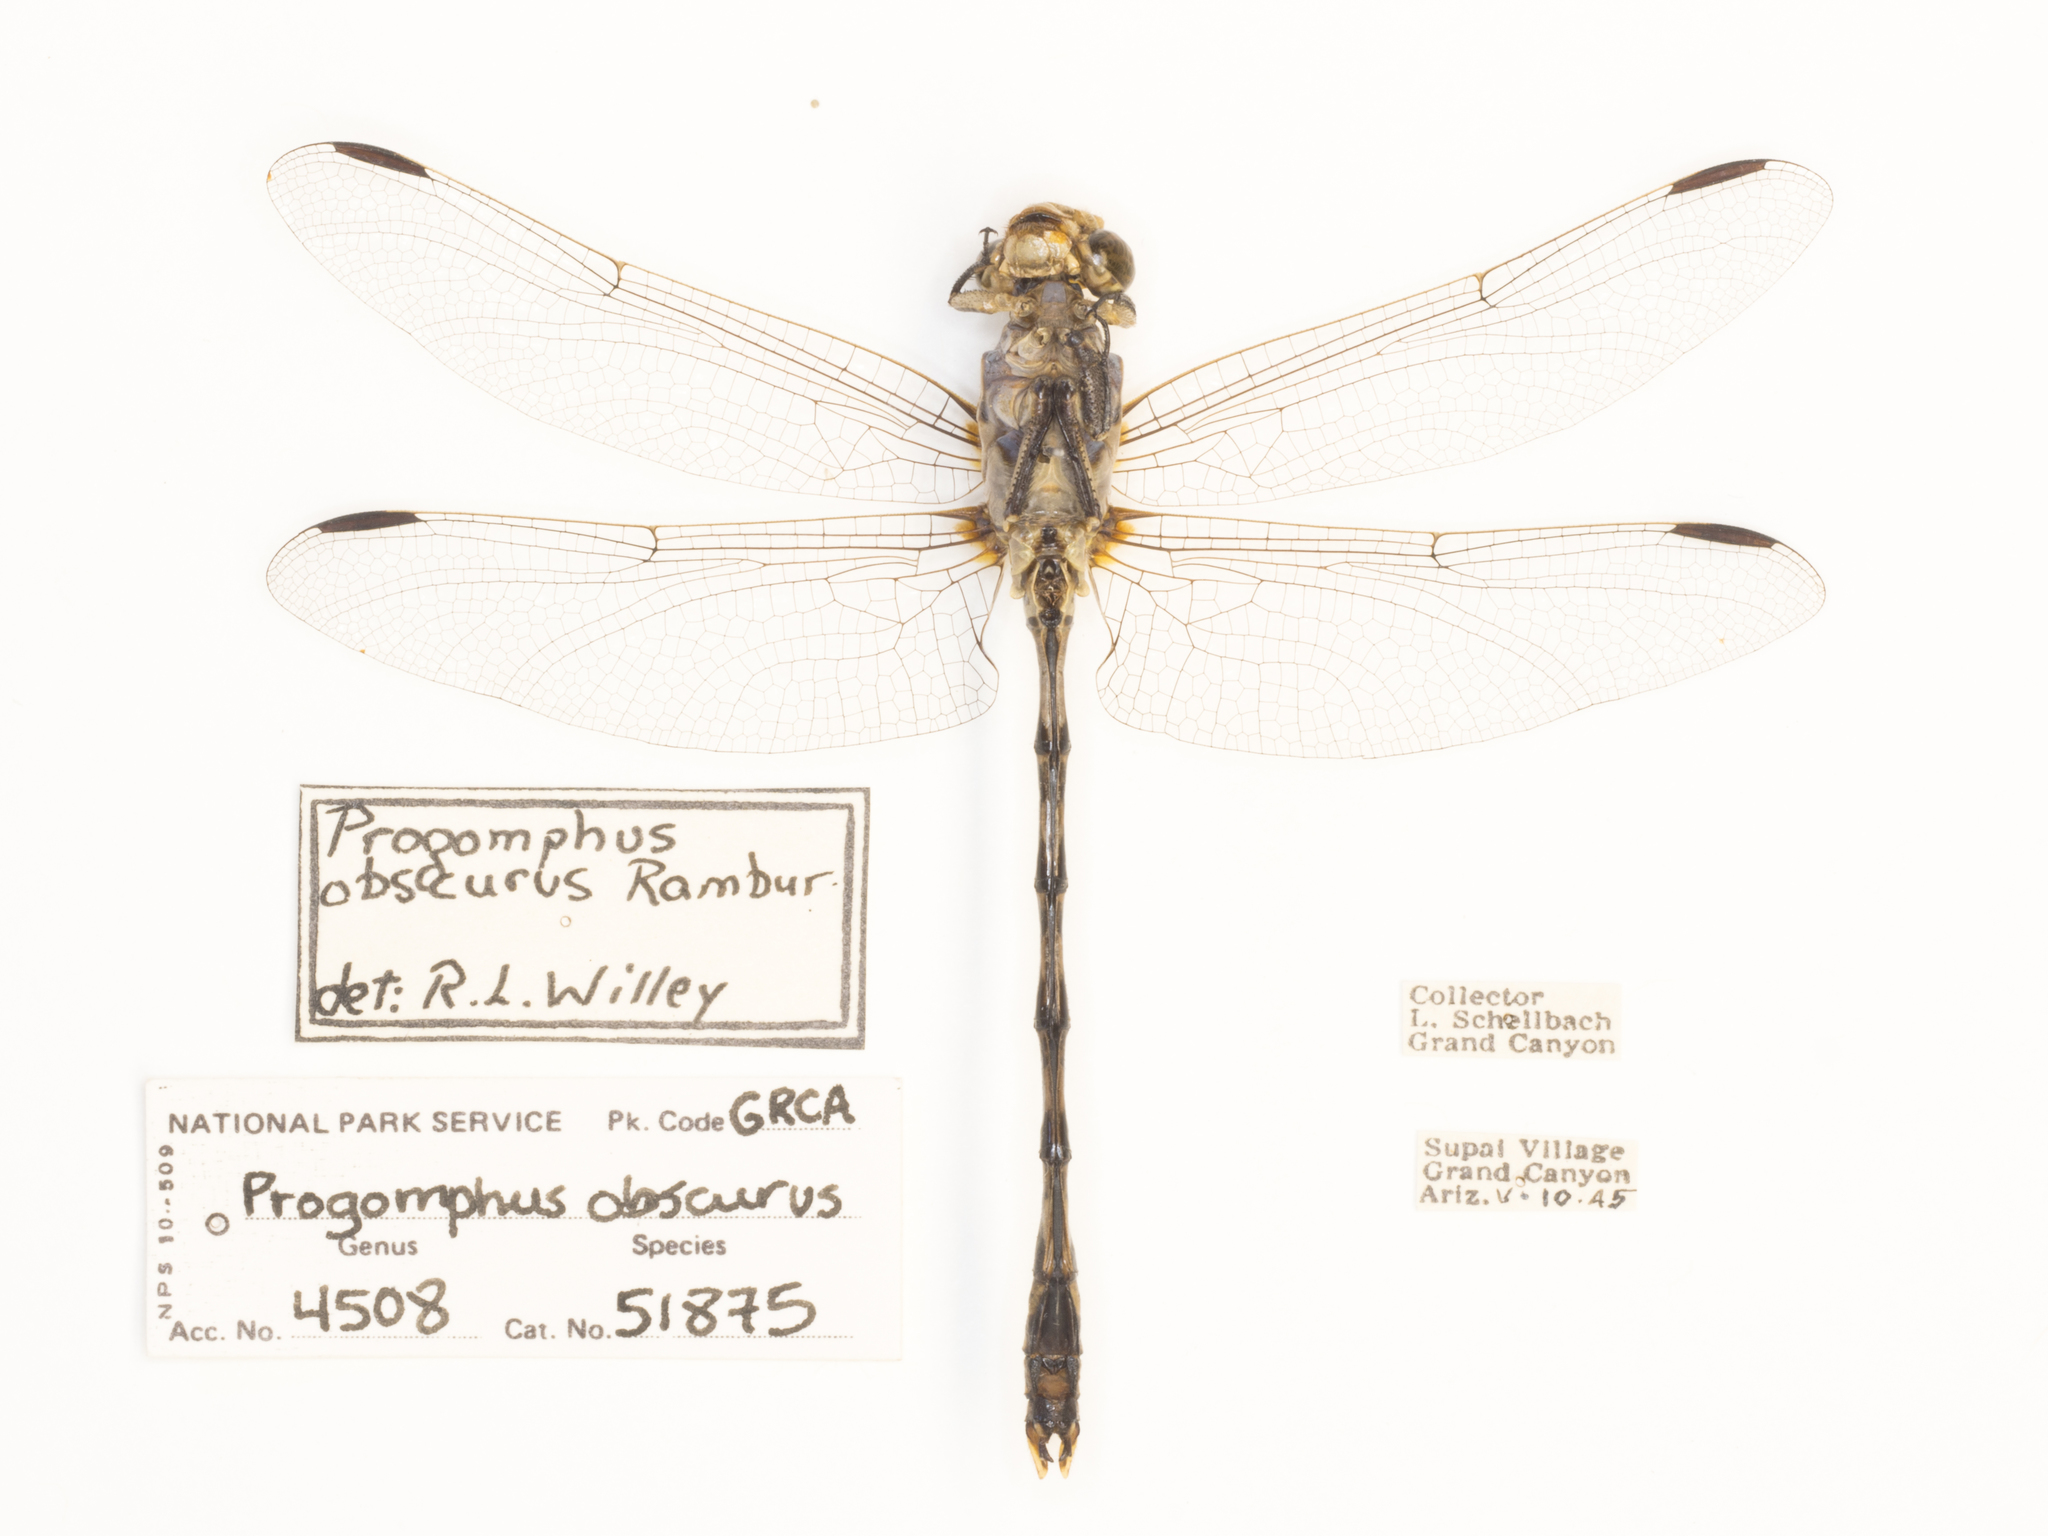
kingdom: Animalia
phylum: Arthropoda
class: Insecta
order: Odonata
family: Gomphidae
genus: Progomphus
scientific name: Progomphus borealis
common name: Gray sanddragon
